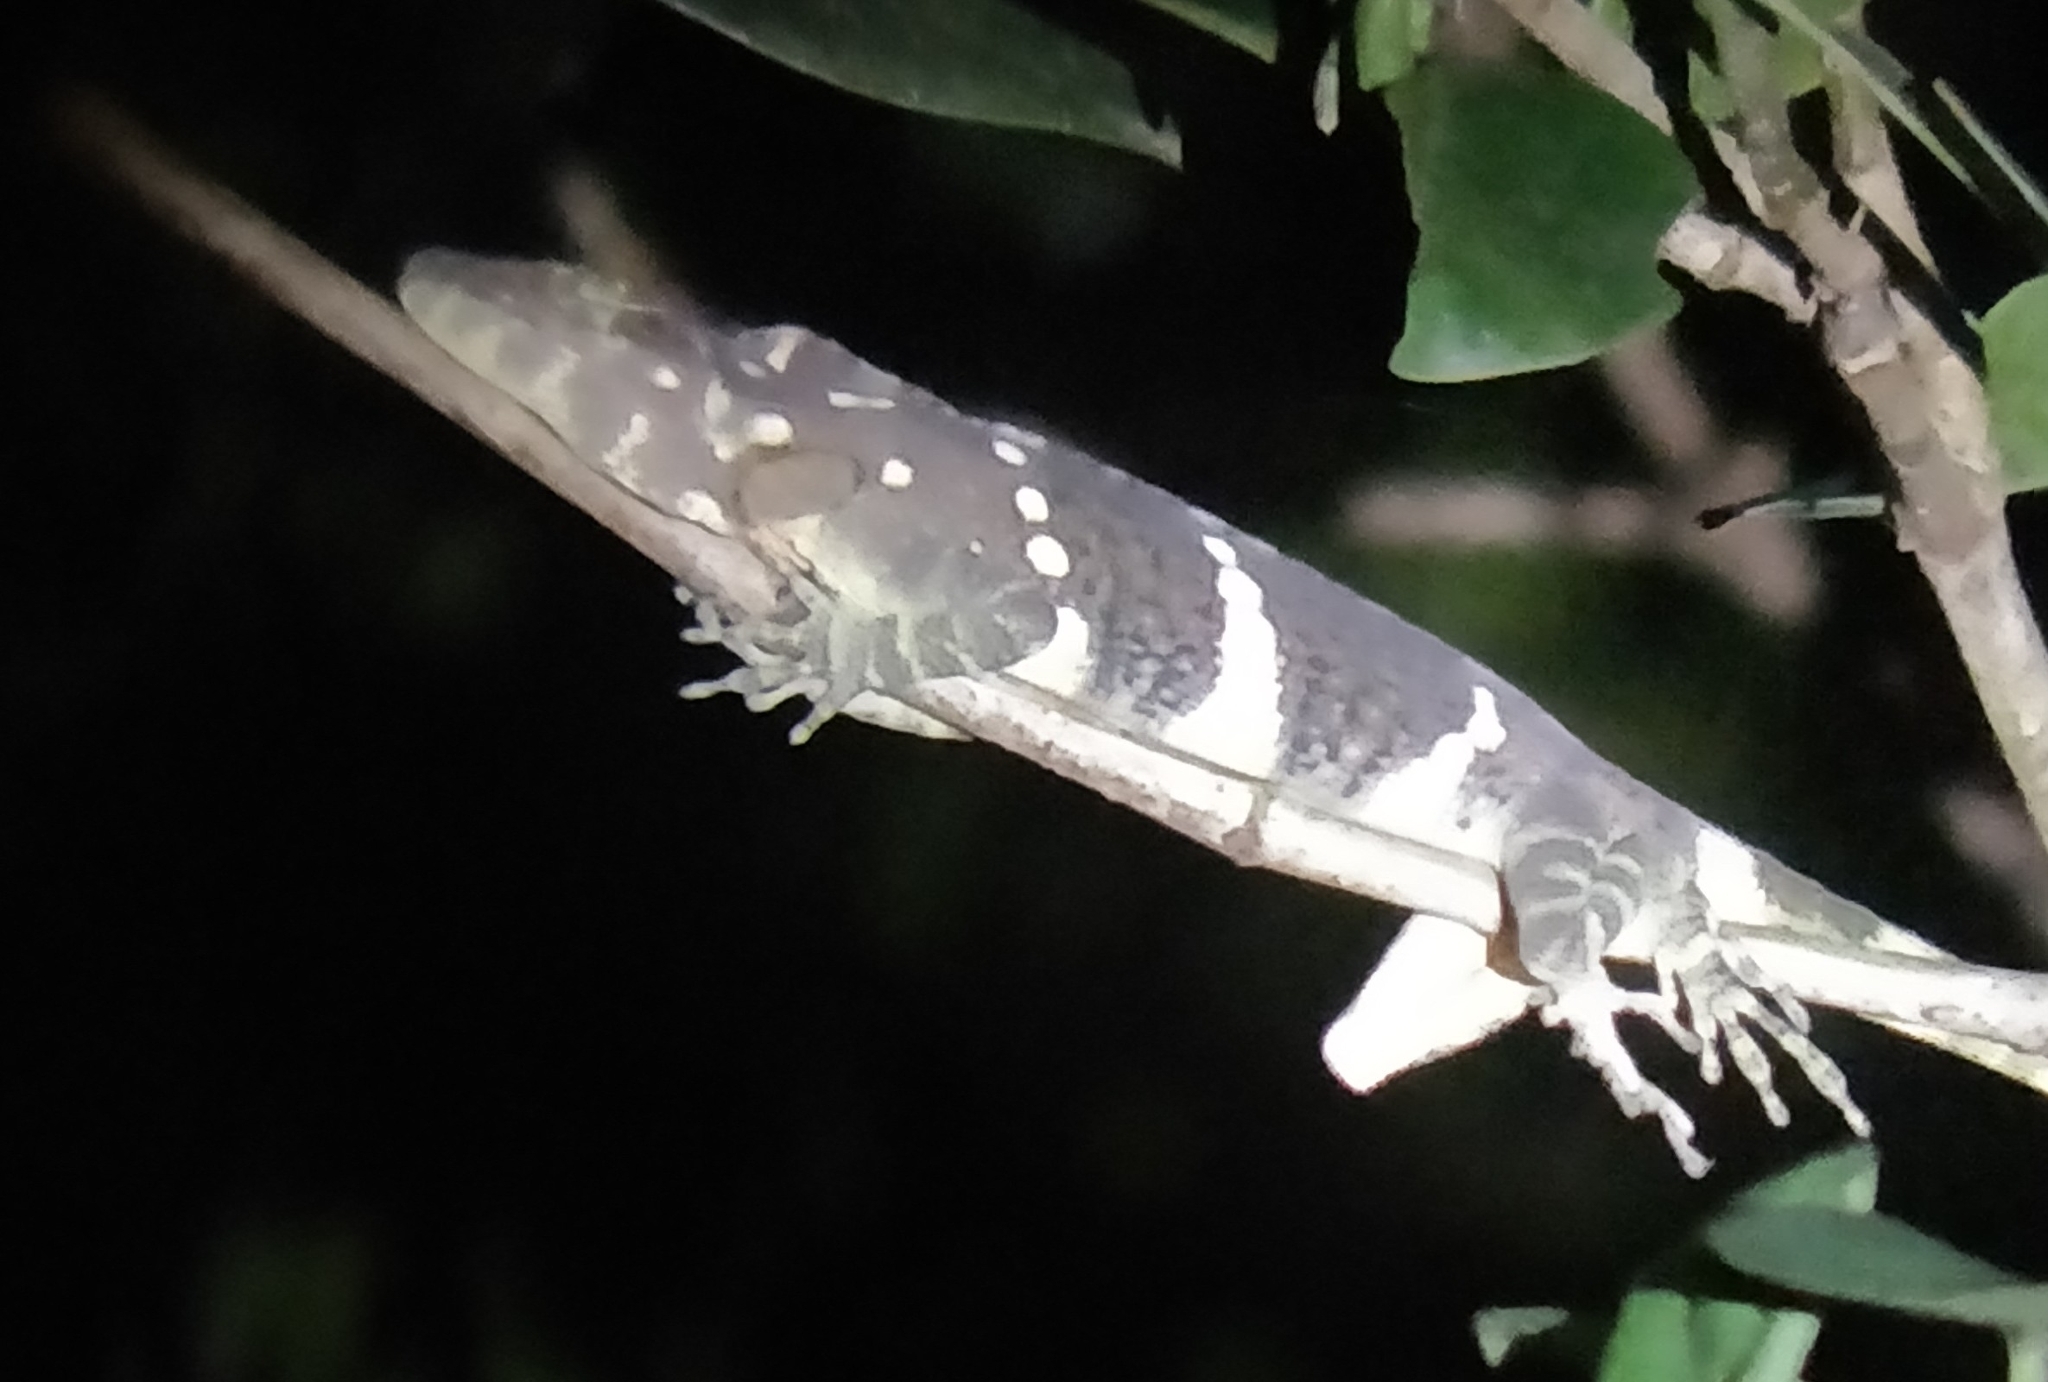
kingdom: Animalia
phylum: Chordata
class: Squamata
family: Dactyloidae
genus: Anolis
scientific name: Anolis insignis
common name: Decorated anole
